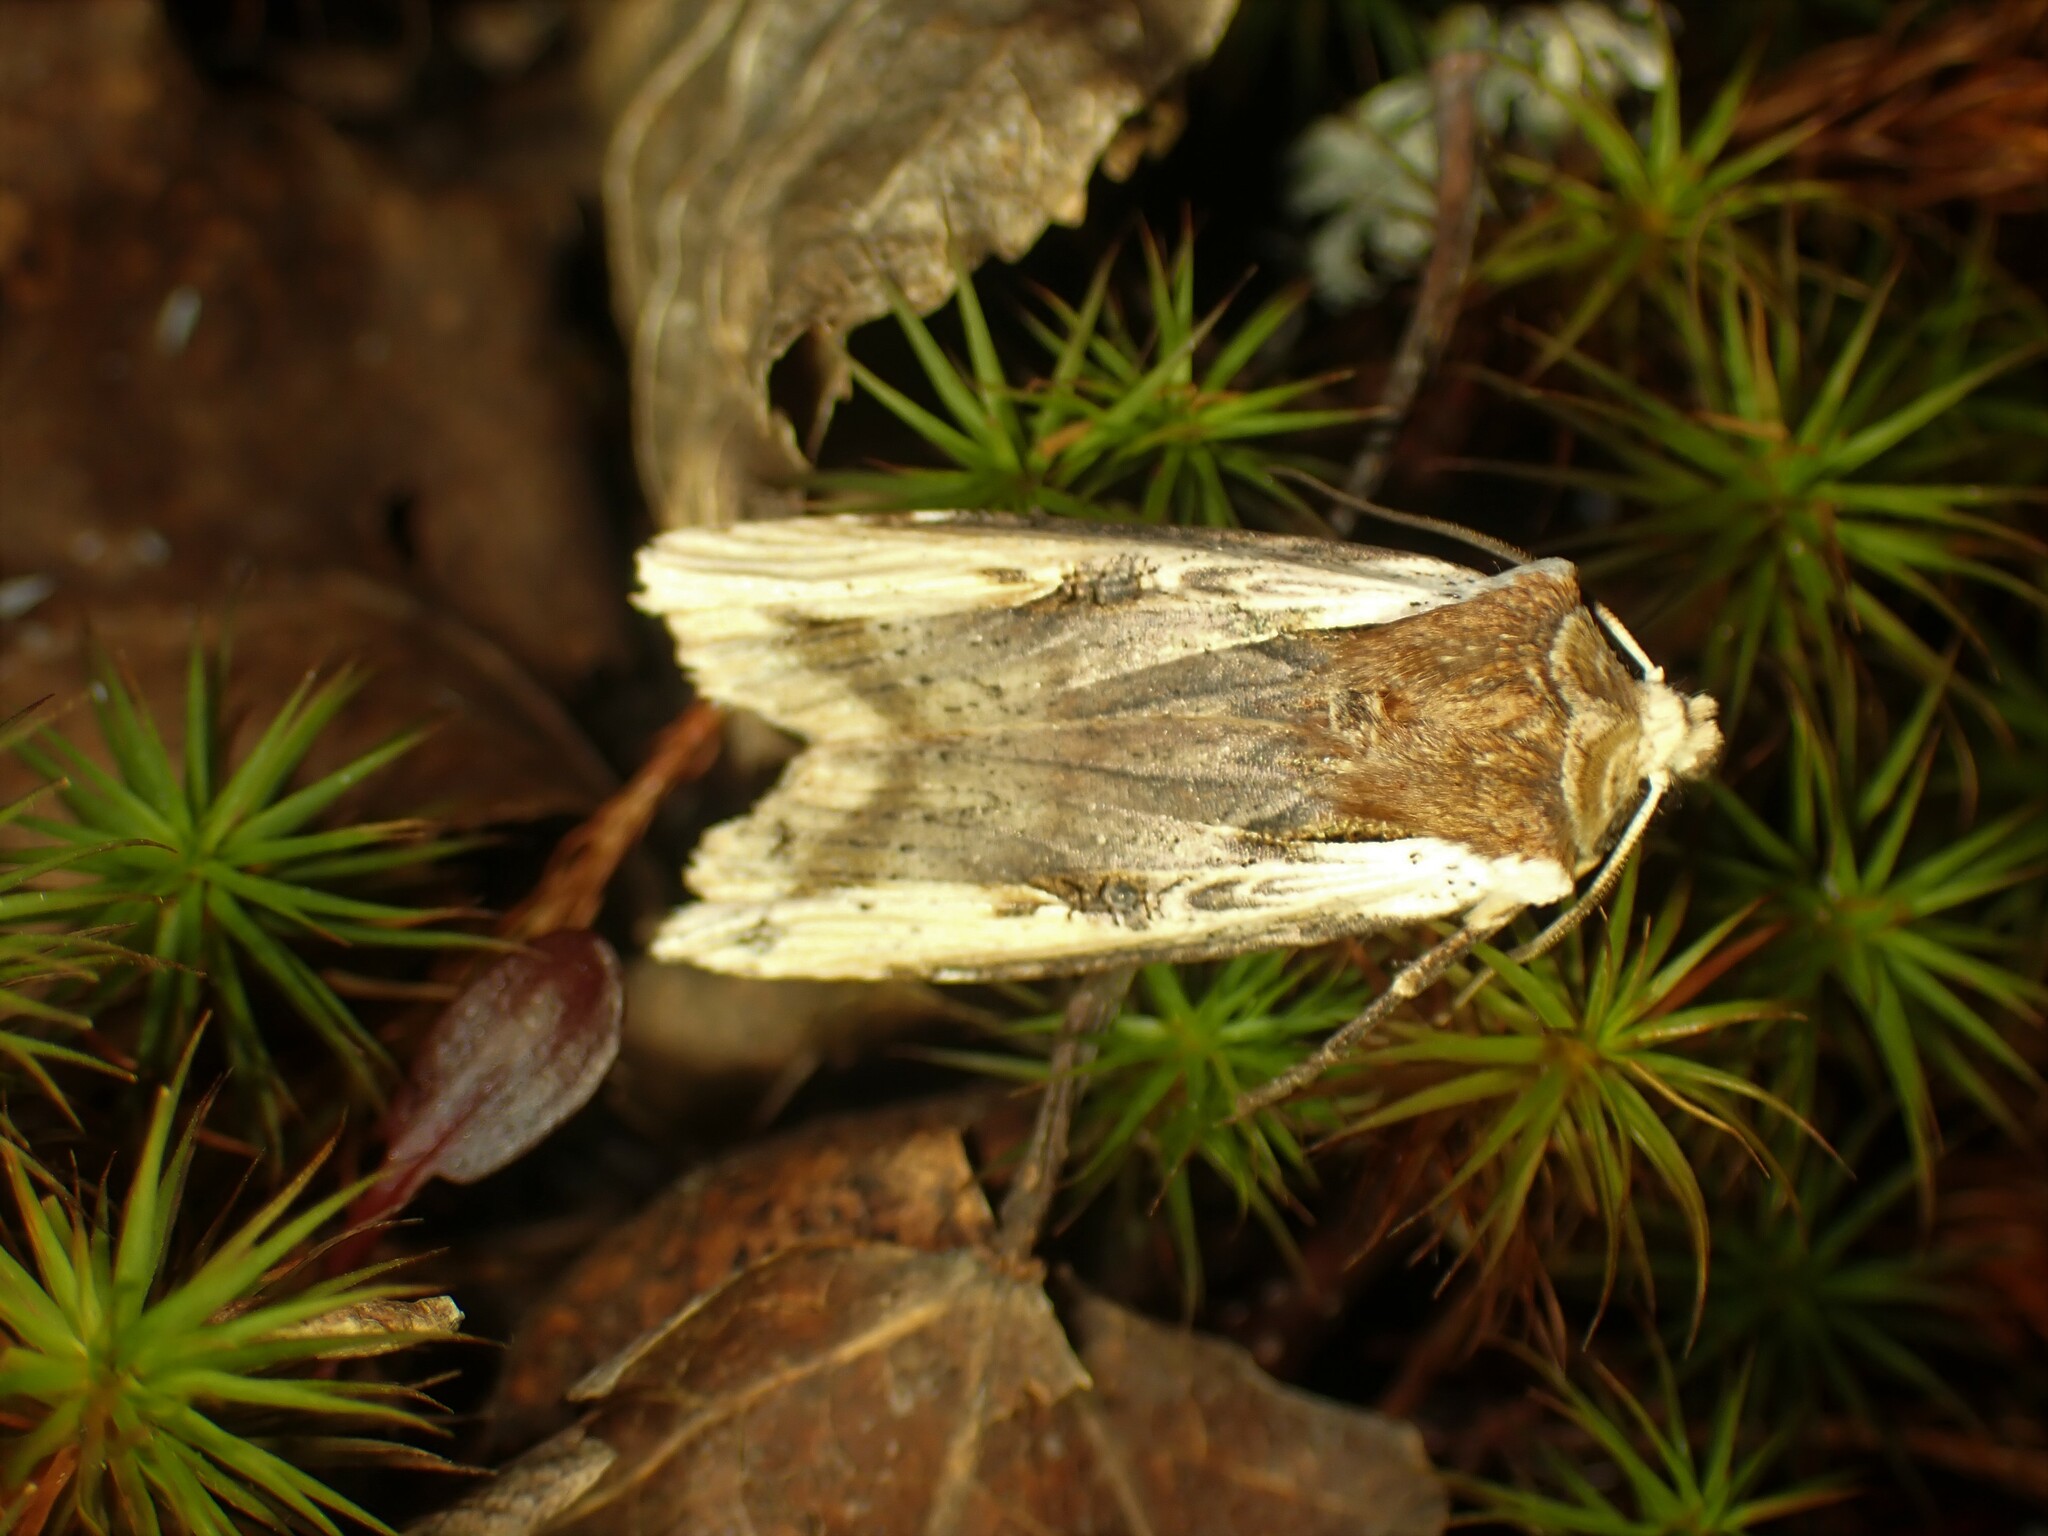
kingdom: Animalia
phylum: Arthropoda
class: Insecta
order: Lepidoptera
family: Noctuidae
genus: Xylena
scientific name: Xylena curvimacula
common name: Dot-and-dash swordgrass moth
